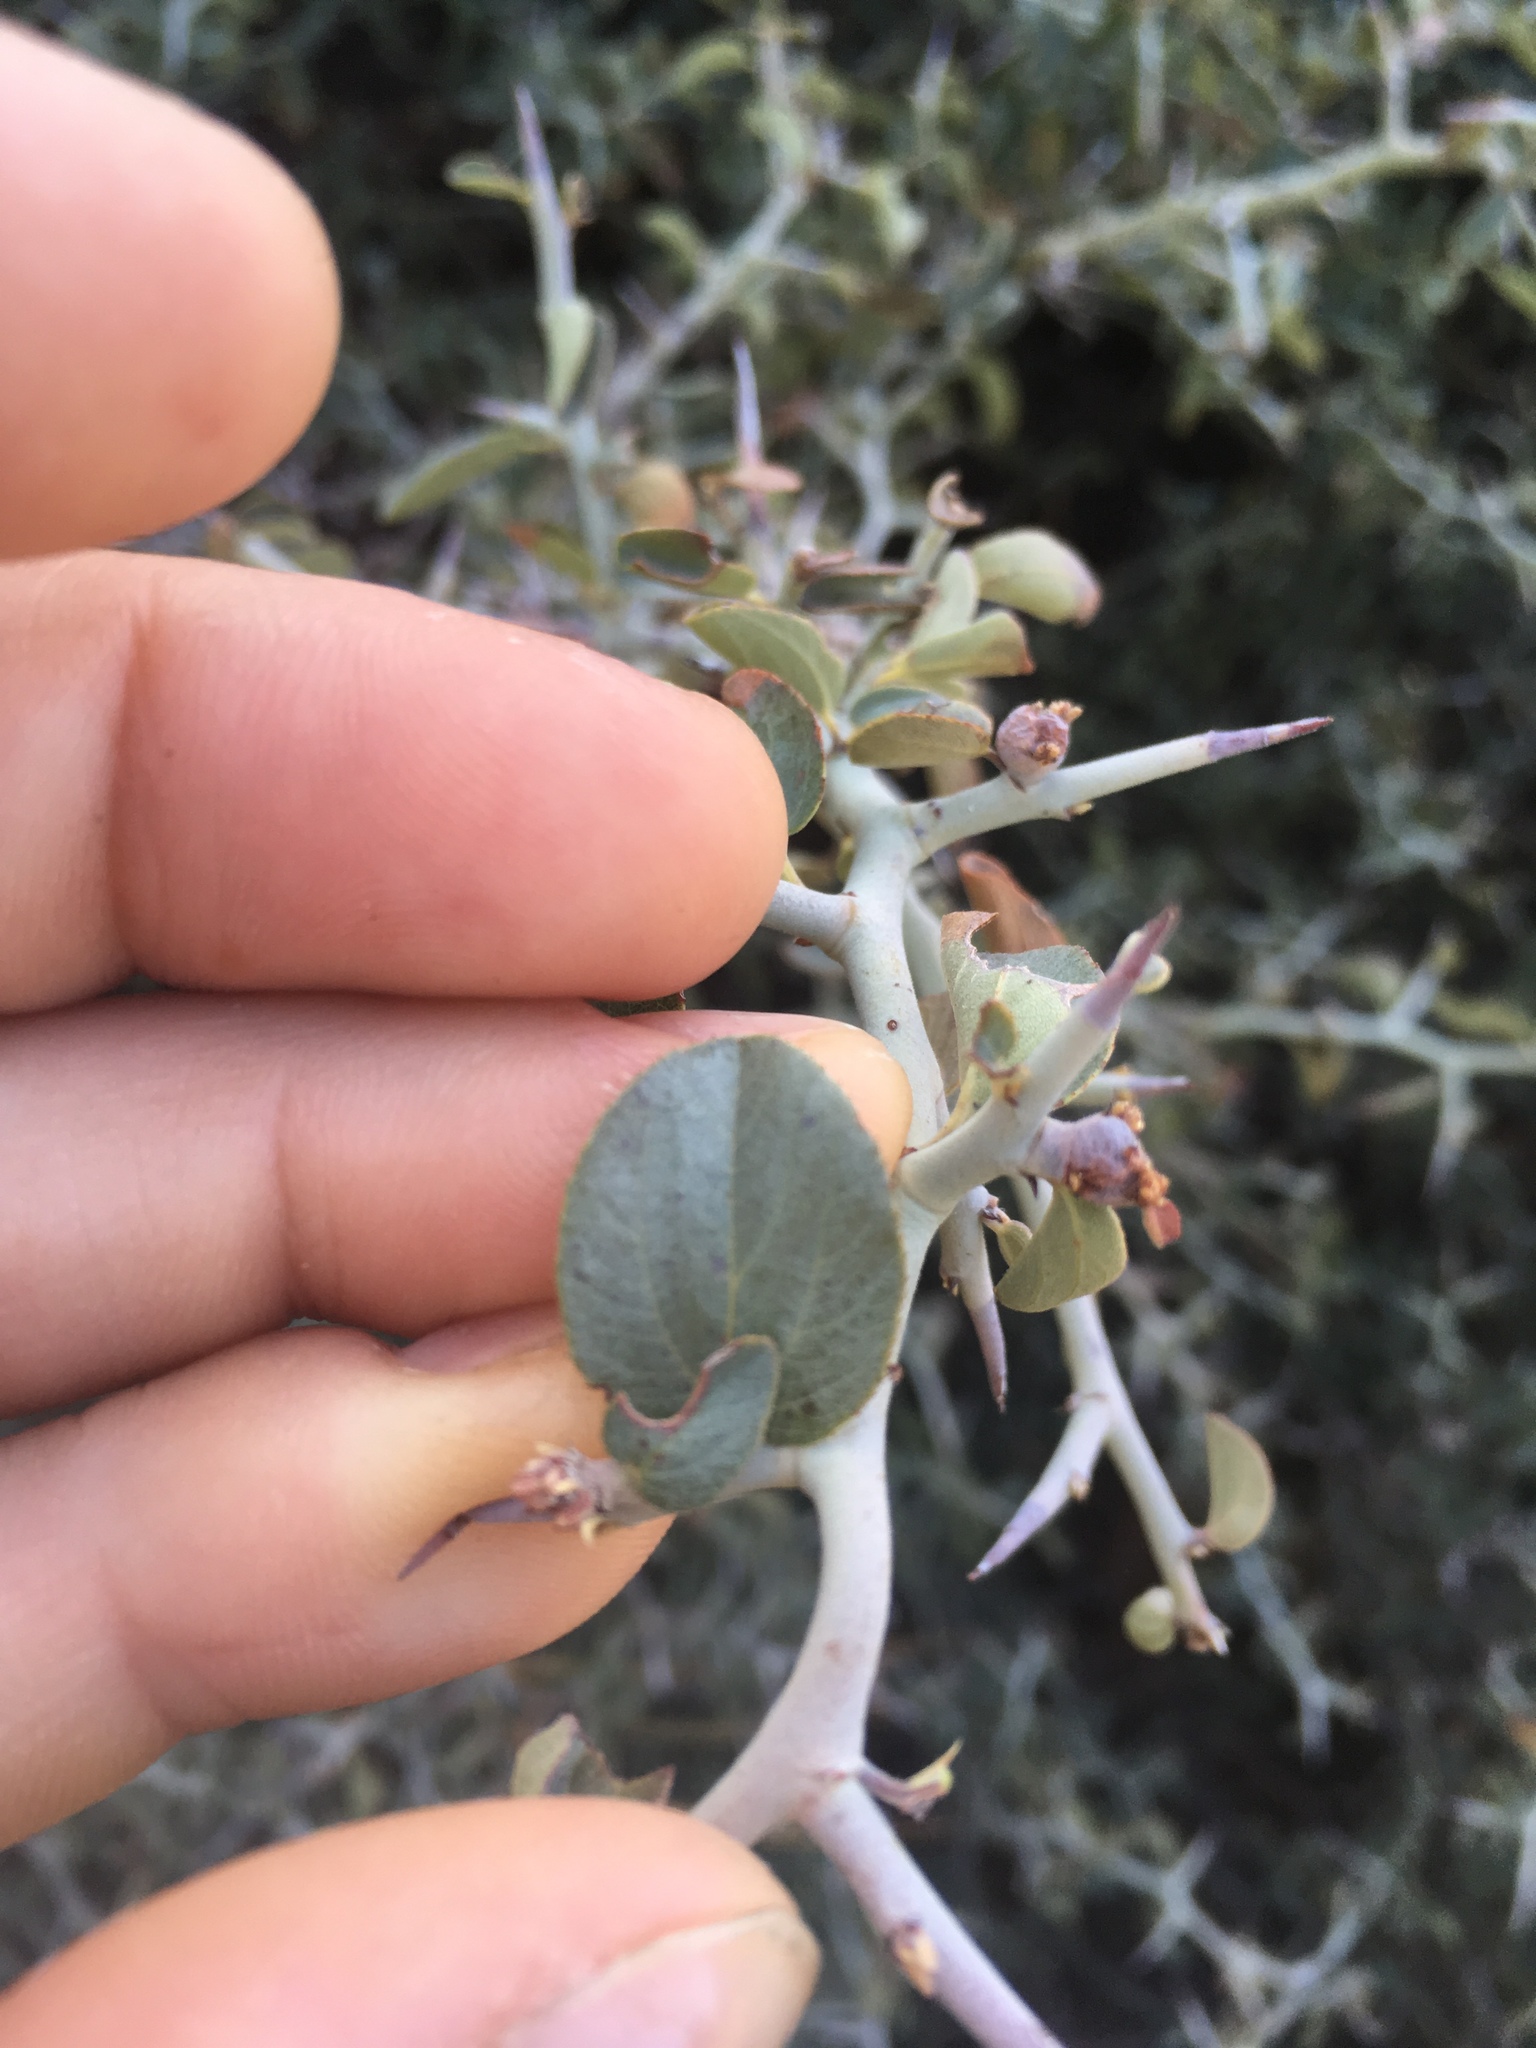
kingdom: Plantae
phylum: Tracheophyta
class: Magnoliopsida
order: Rosales
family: Rhamnaceae
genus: Ceanothus
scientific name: Ceanothus cordulatus
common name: Mountain whitethorn
